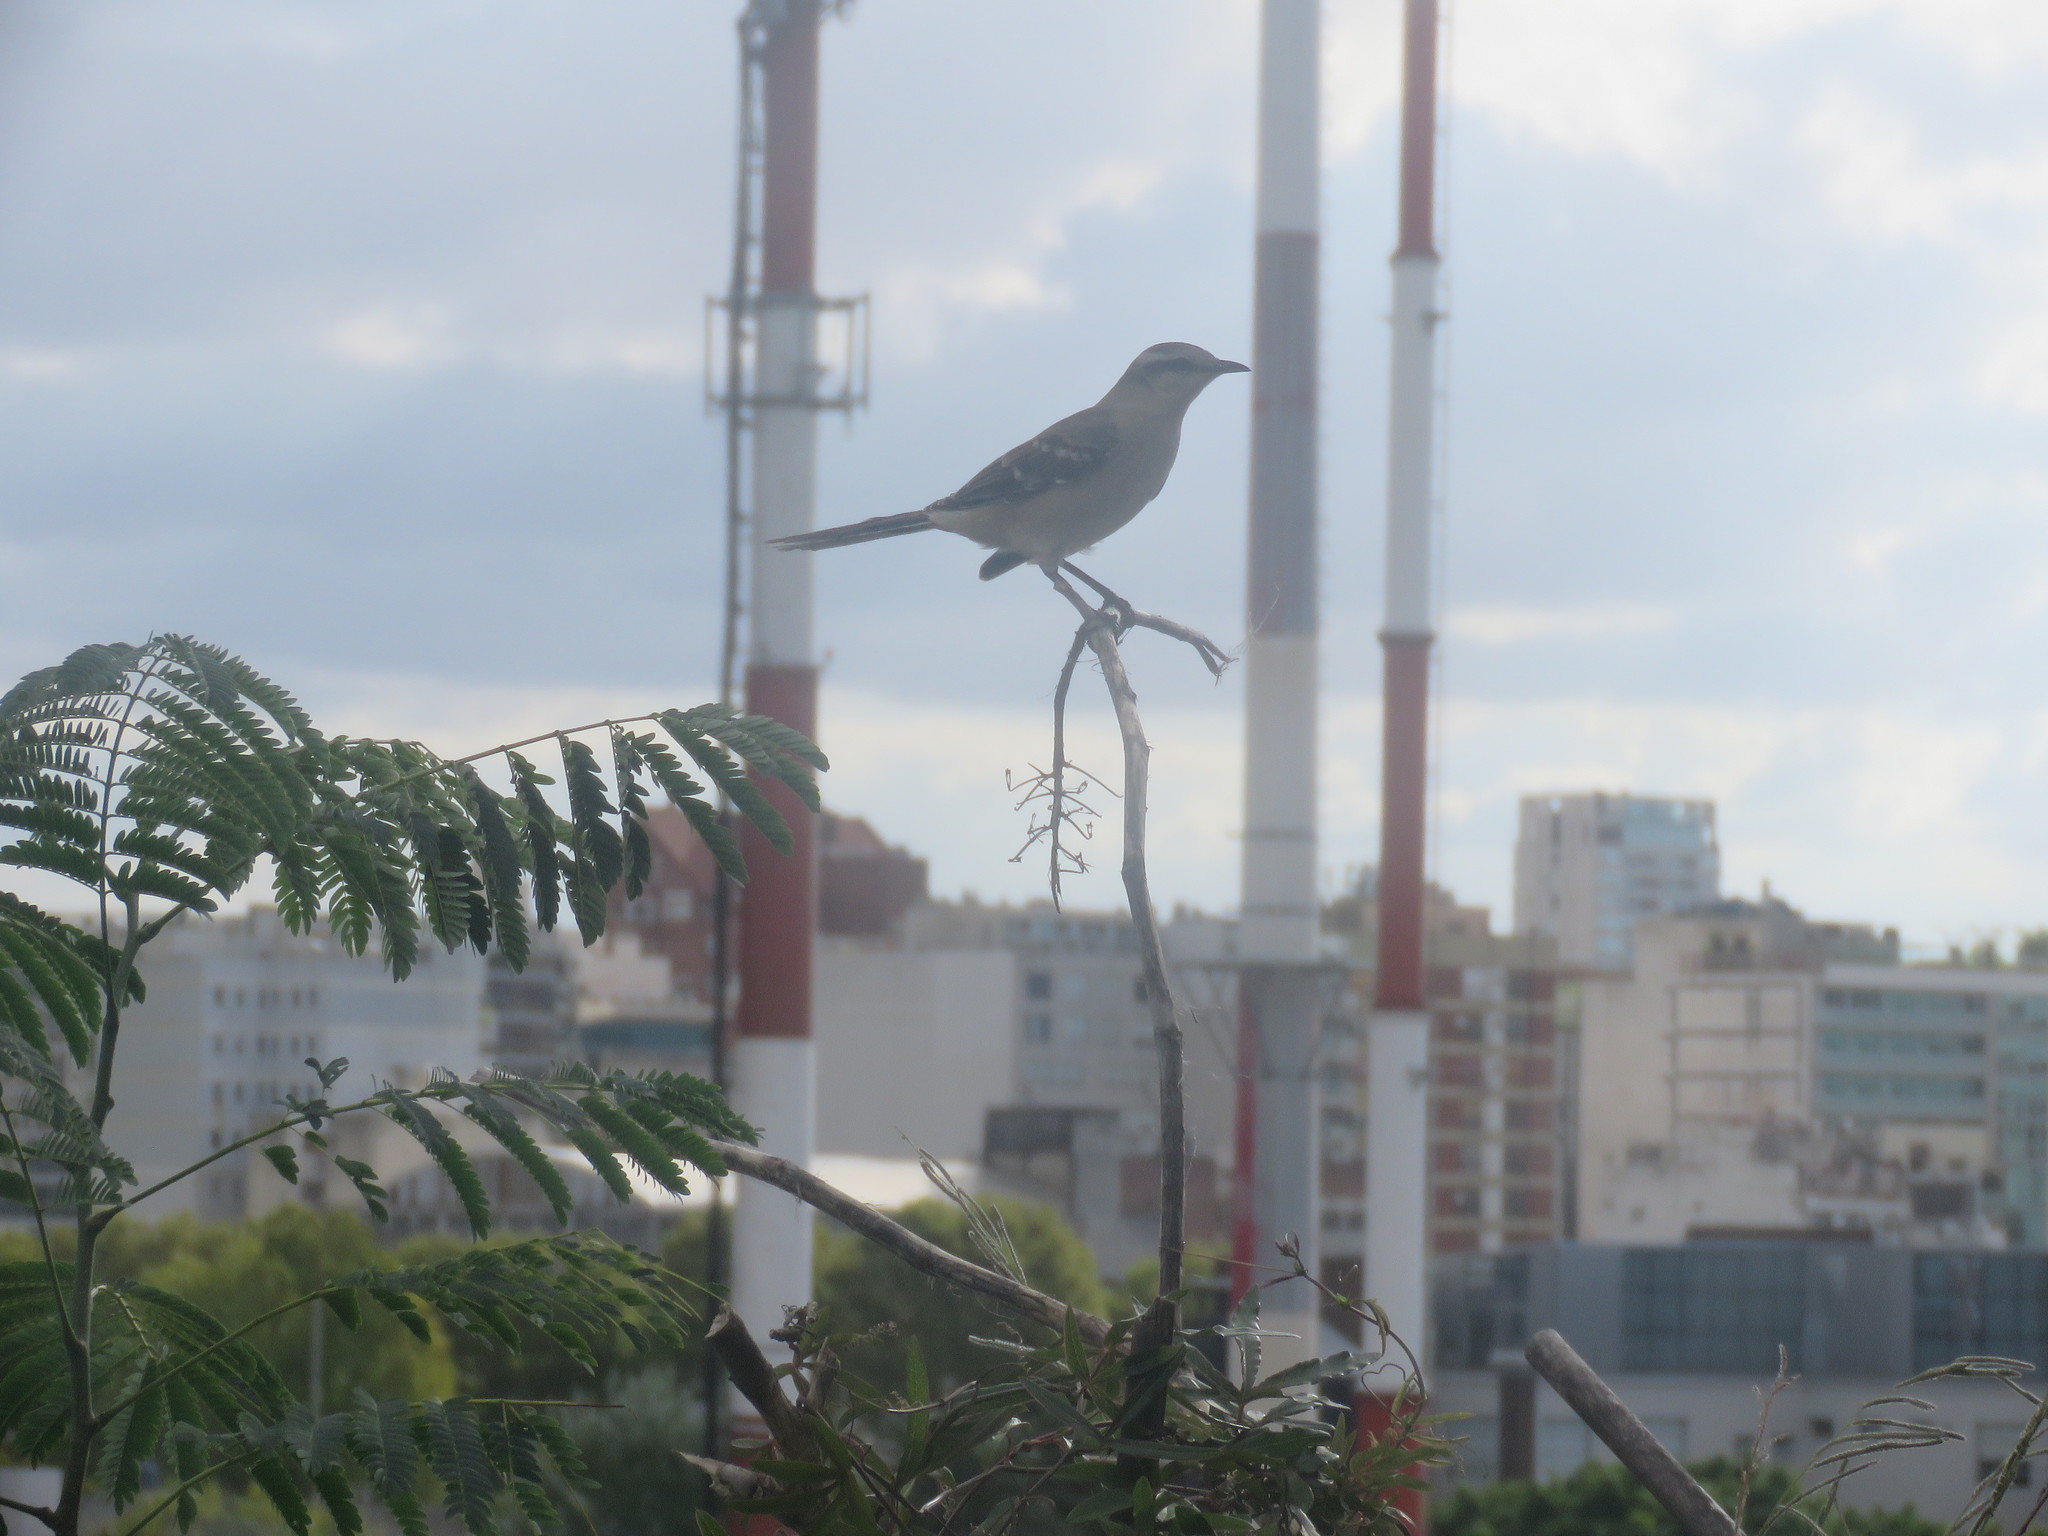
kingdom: Animalia
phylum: Chordata
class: Aves
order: Passeriformes
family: Mimidae
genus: Mimus
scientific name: Mimus saturninus
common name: Chalk-browed mockingbird
